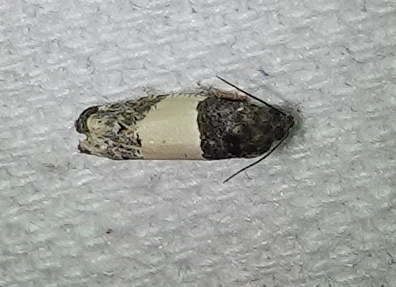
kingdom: Animalia
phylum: Arthropoda
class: Insecta
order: Lepidoptera
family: Tortricidae
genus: Epiblema
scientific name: Epiblema tripartitana
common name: Three-parted epiblema moth
